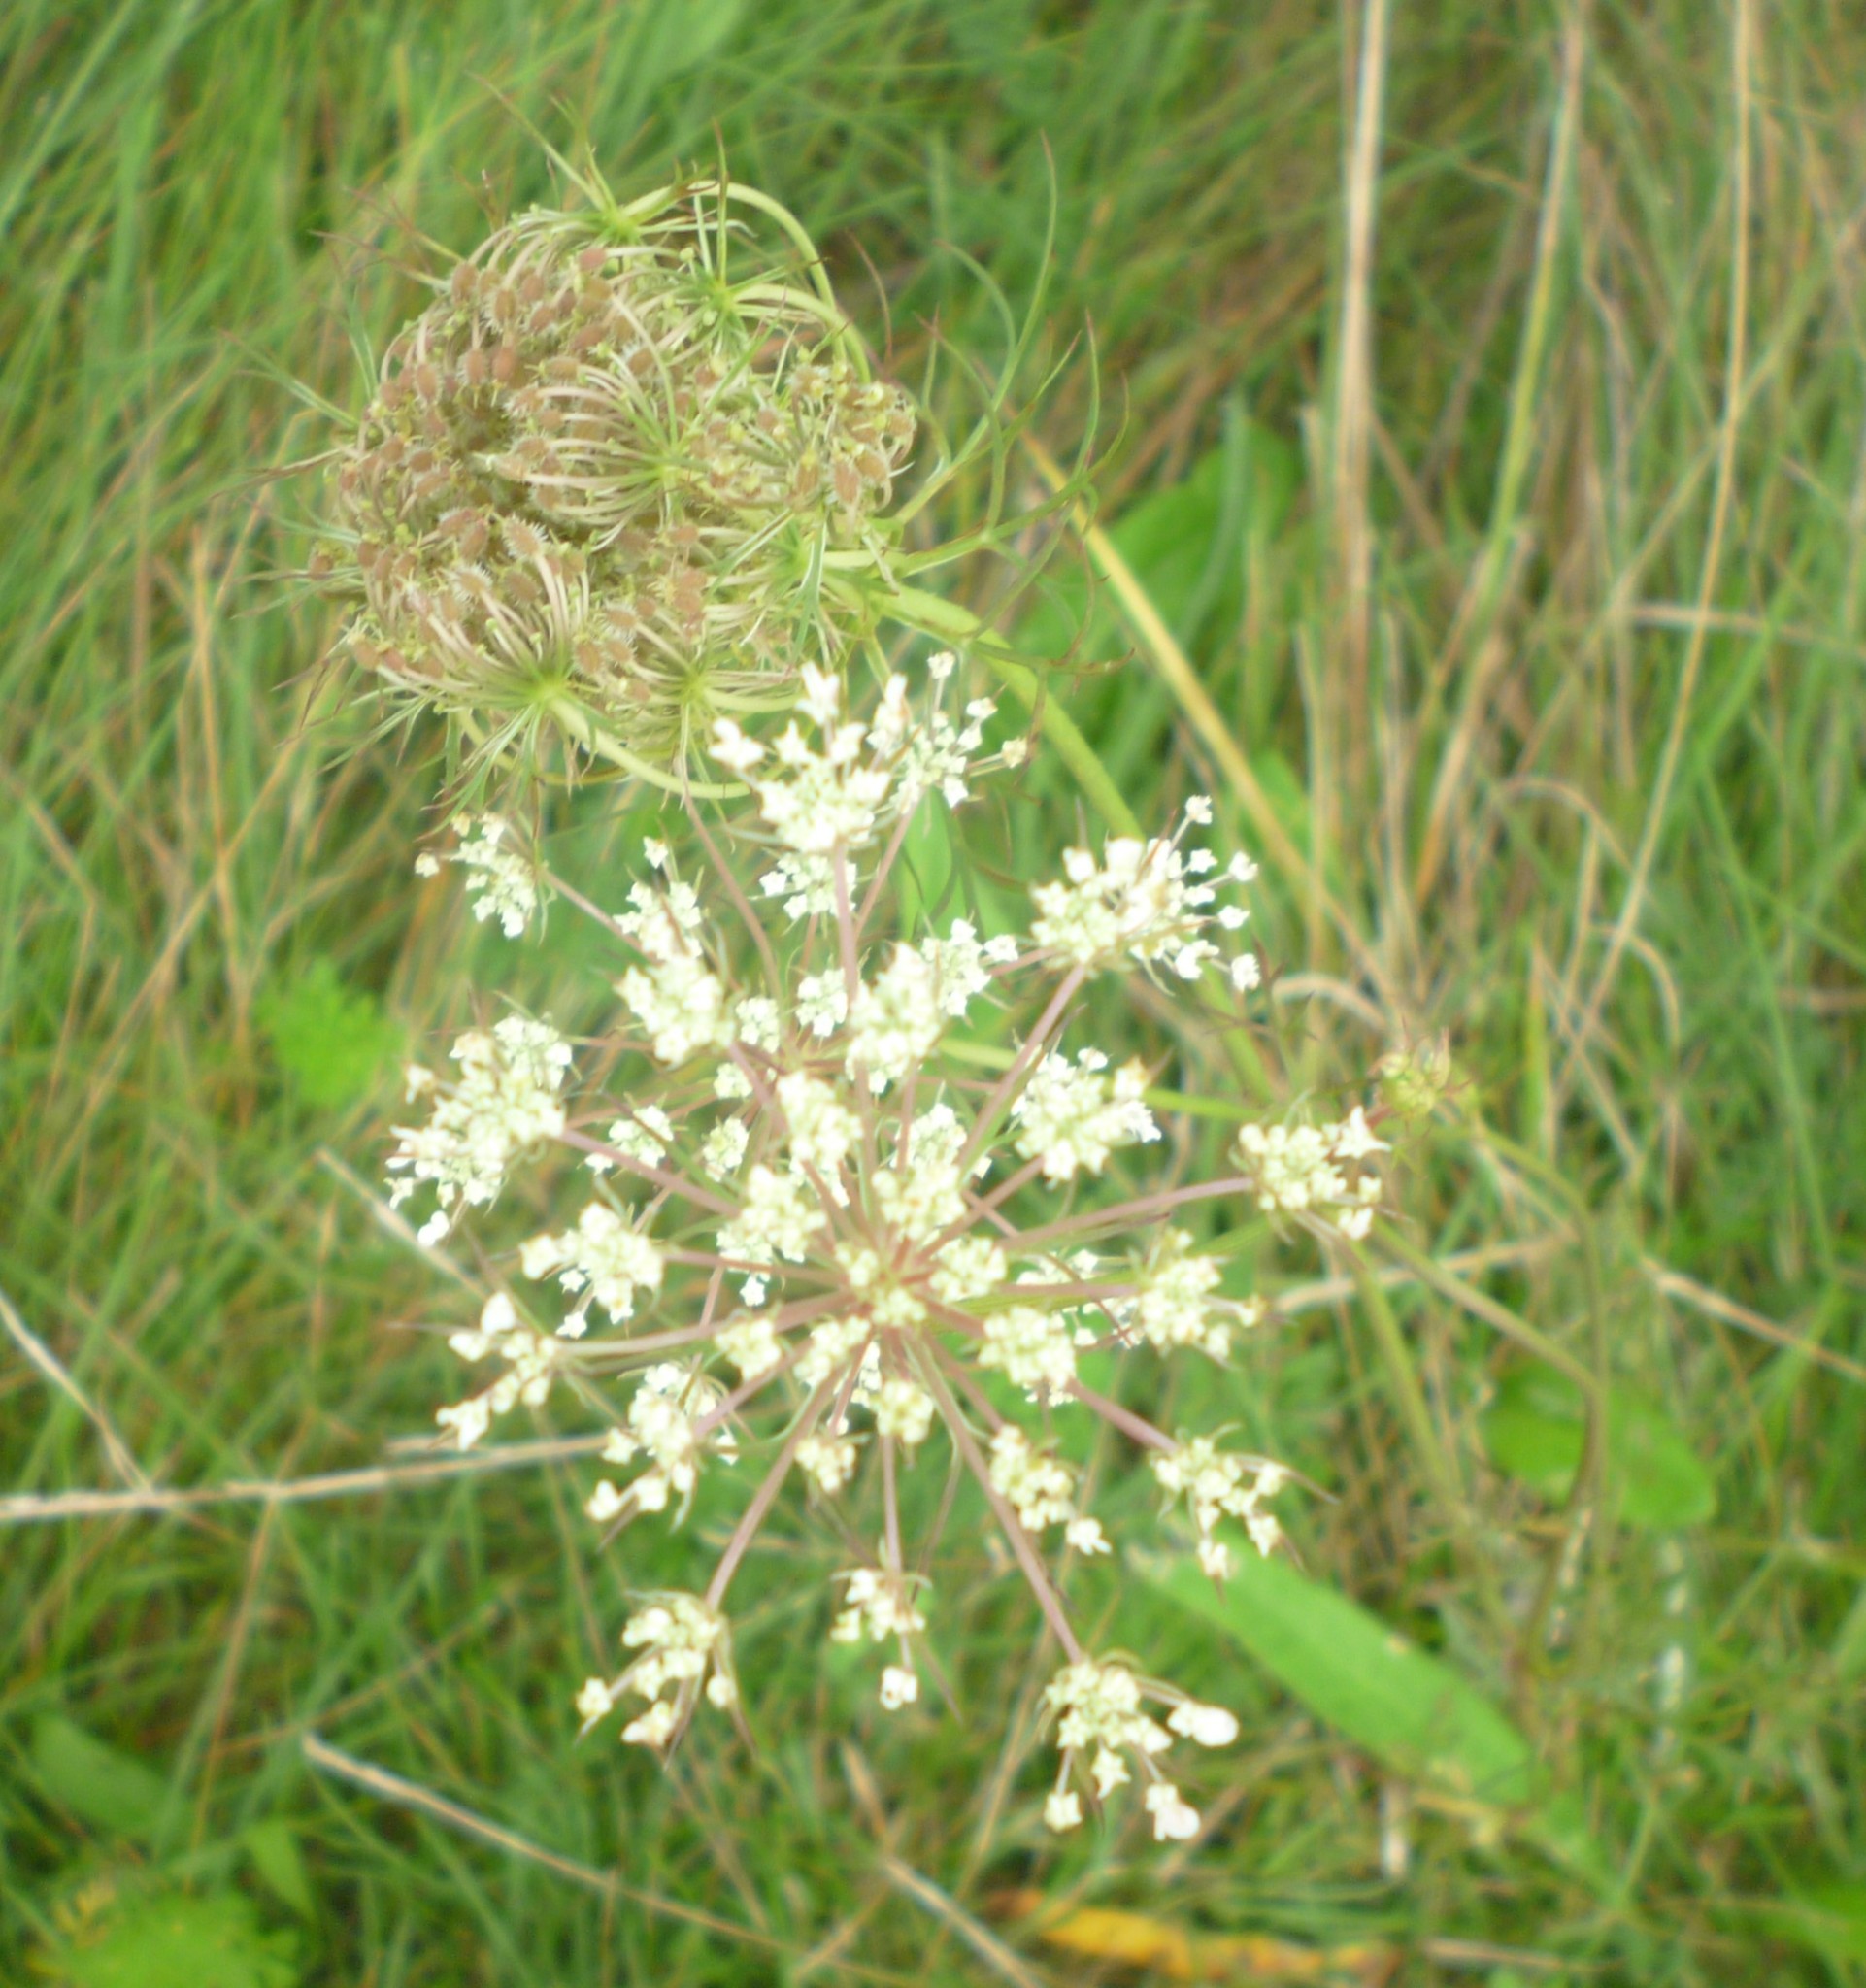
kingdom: Plantae
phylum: Tracheophyta
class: Magnoliopsida
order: Apiales
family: Apiaceae
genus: Daucus
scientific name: Daucus carota
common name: Wild carrot
